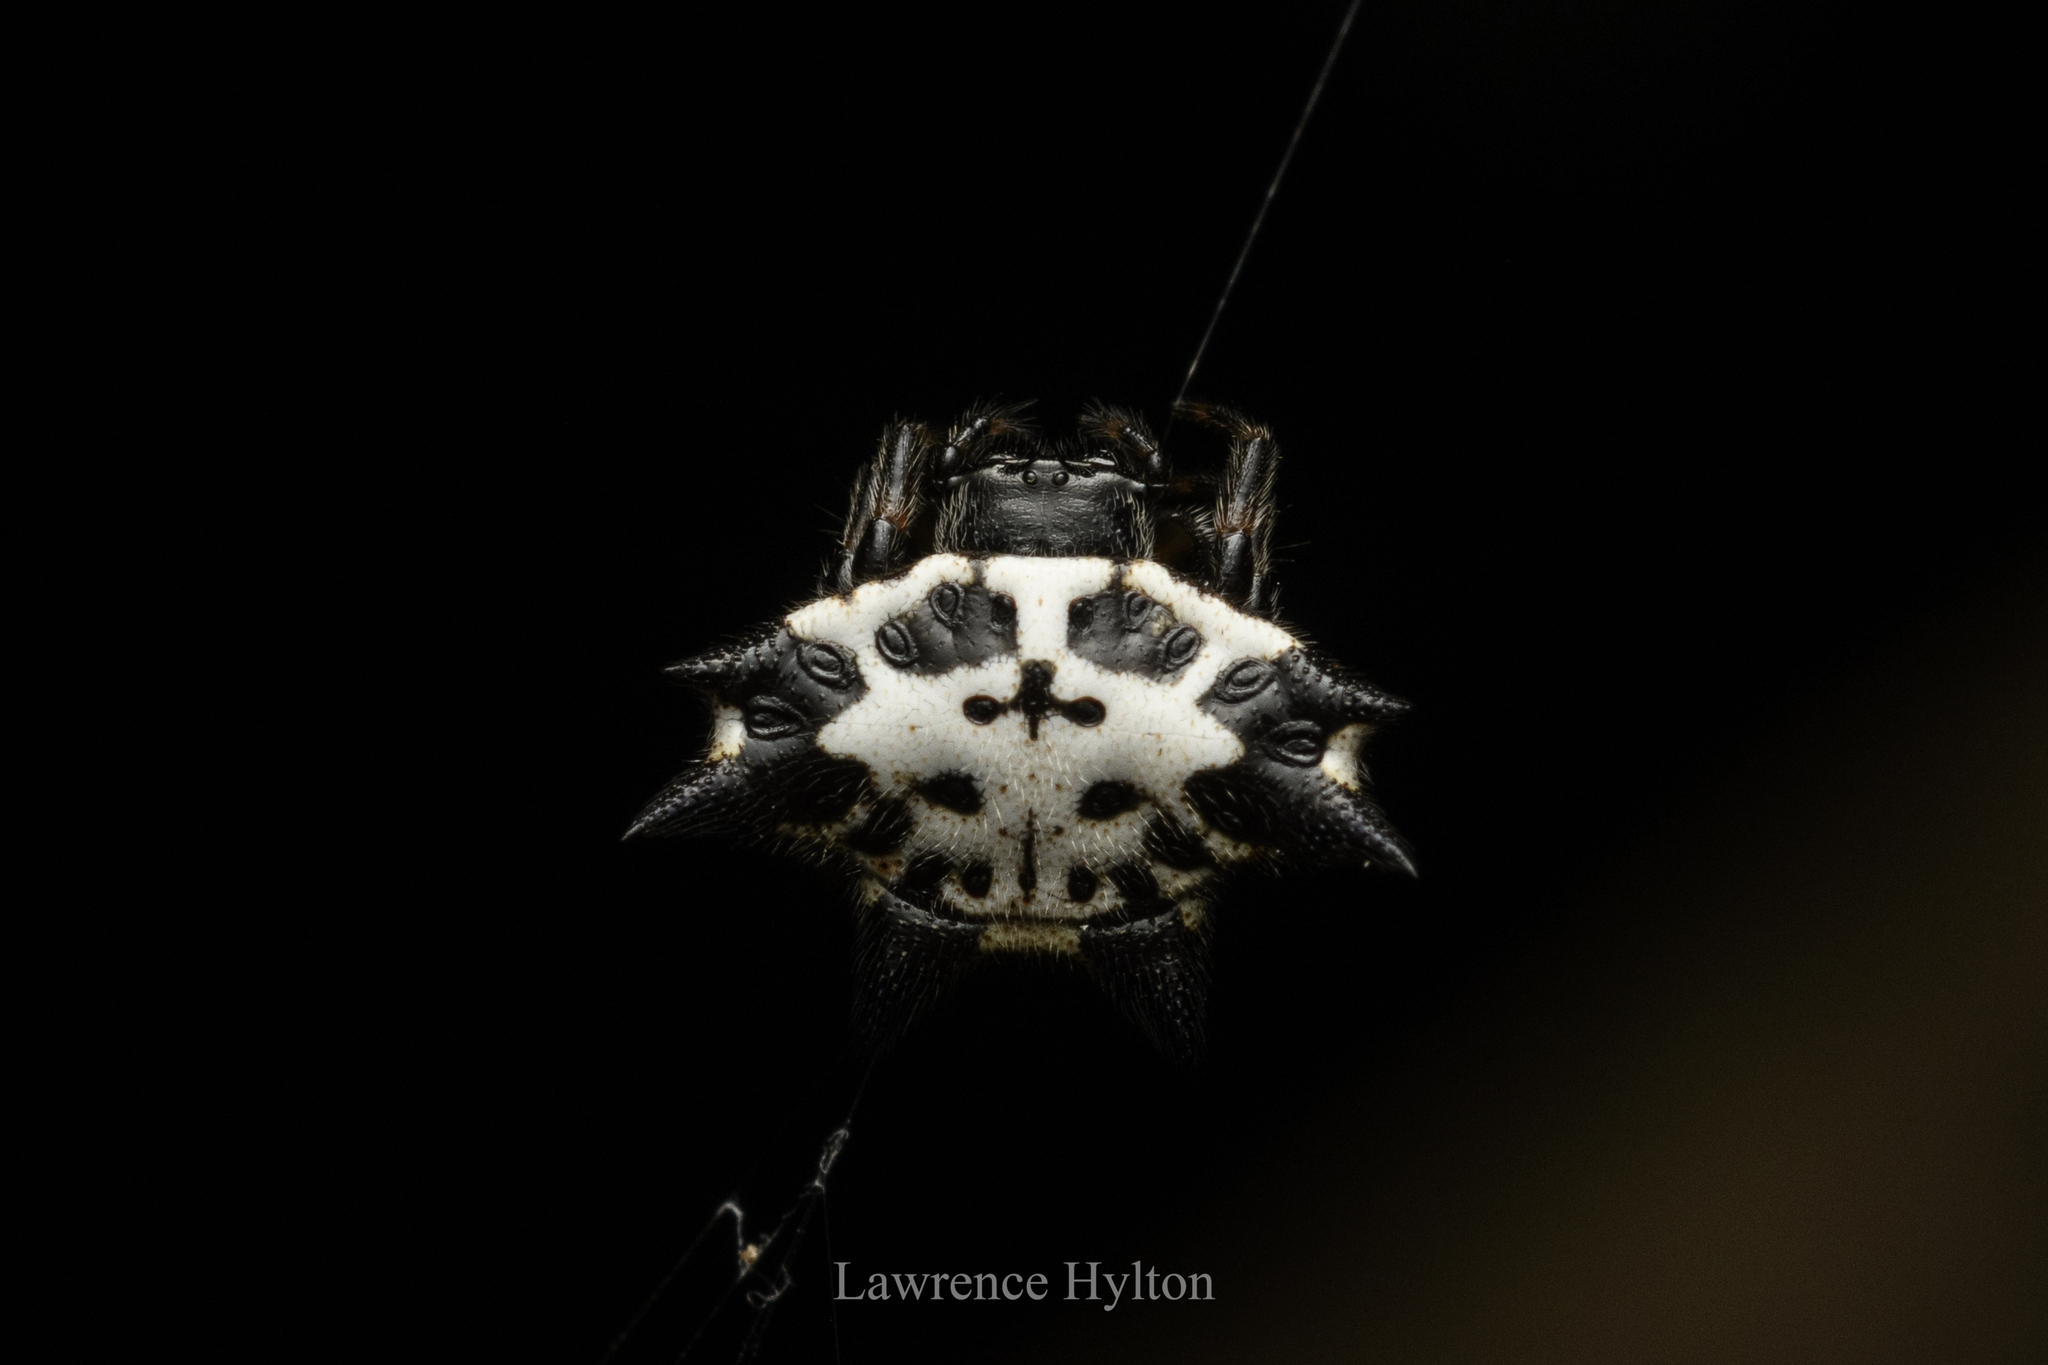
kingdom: Animalia
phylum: Arthropoda
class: Arachnida
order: Araneae
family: Araneidae
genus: Gasteracantha
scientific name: Gasteracantha kuhli
